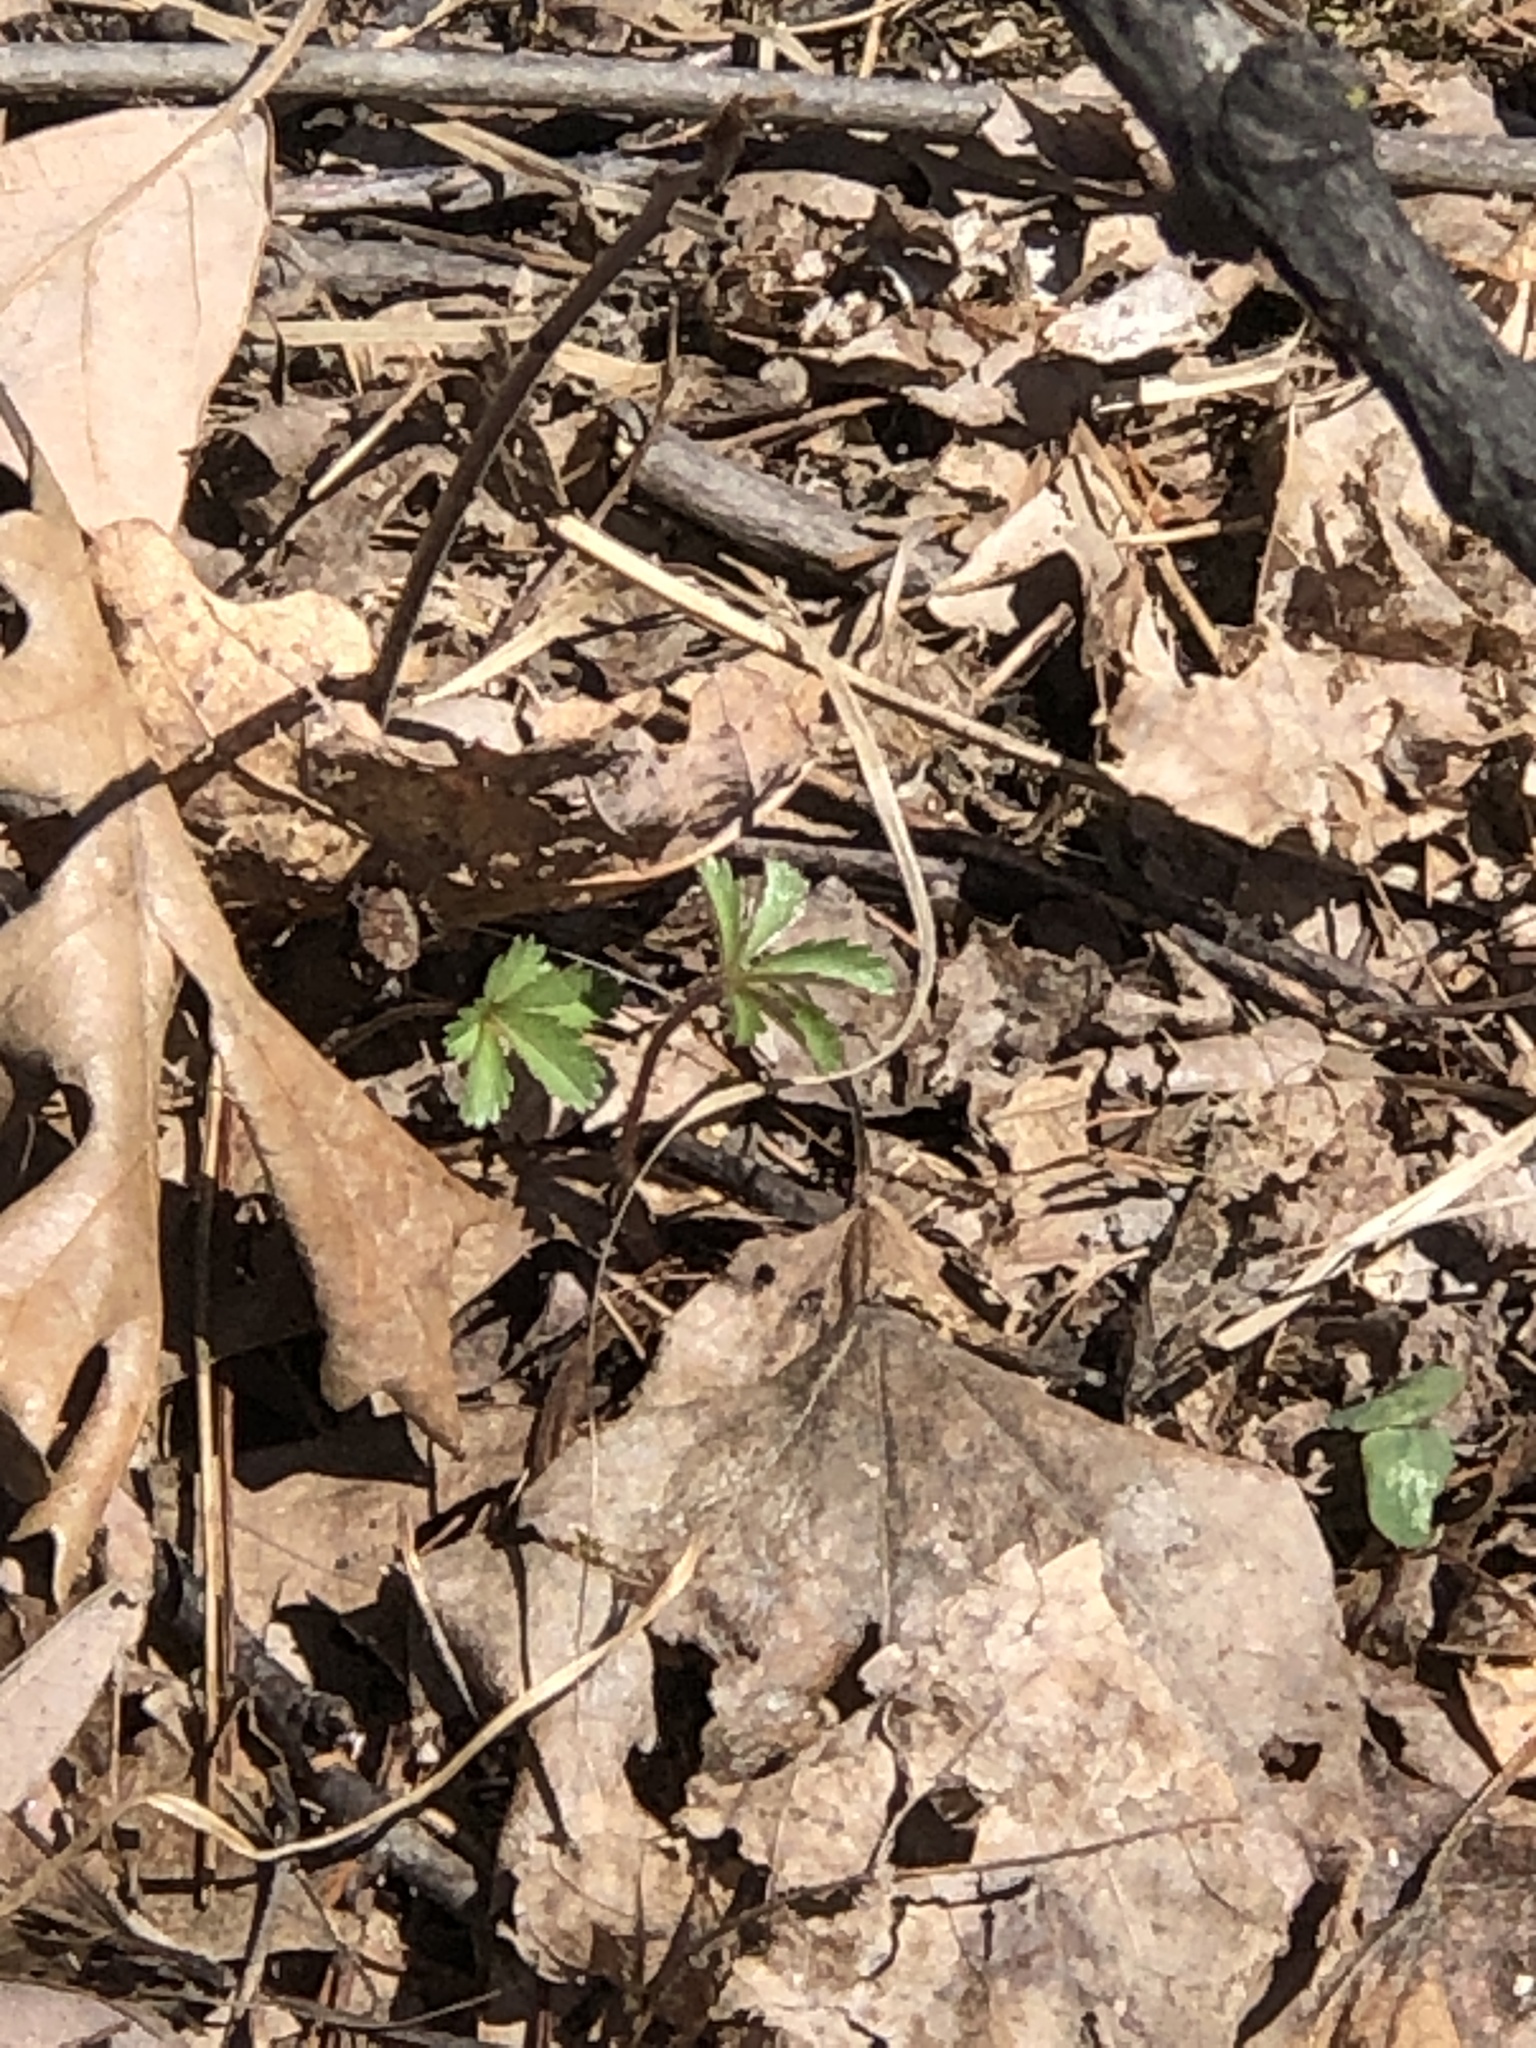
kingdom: Plantae
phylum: Tracheophyta
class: Magnoliopsida
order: Rosales
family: Rosaceae
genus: Potentilla
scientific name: Potentilla simplex
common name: Old field cinquefoil
